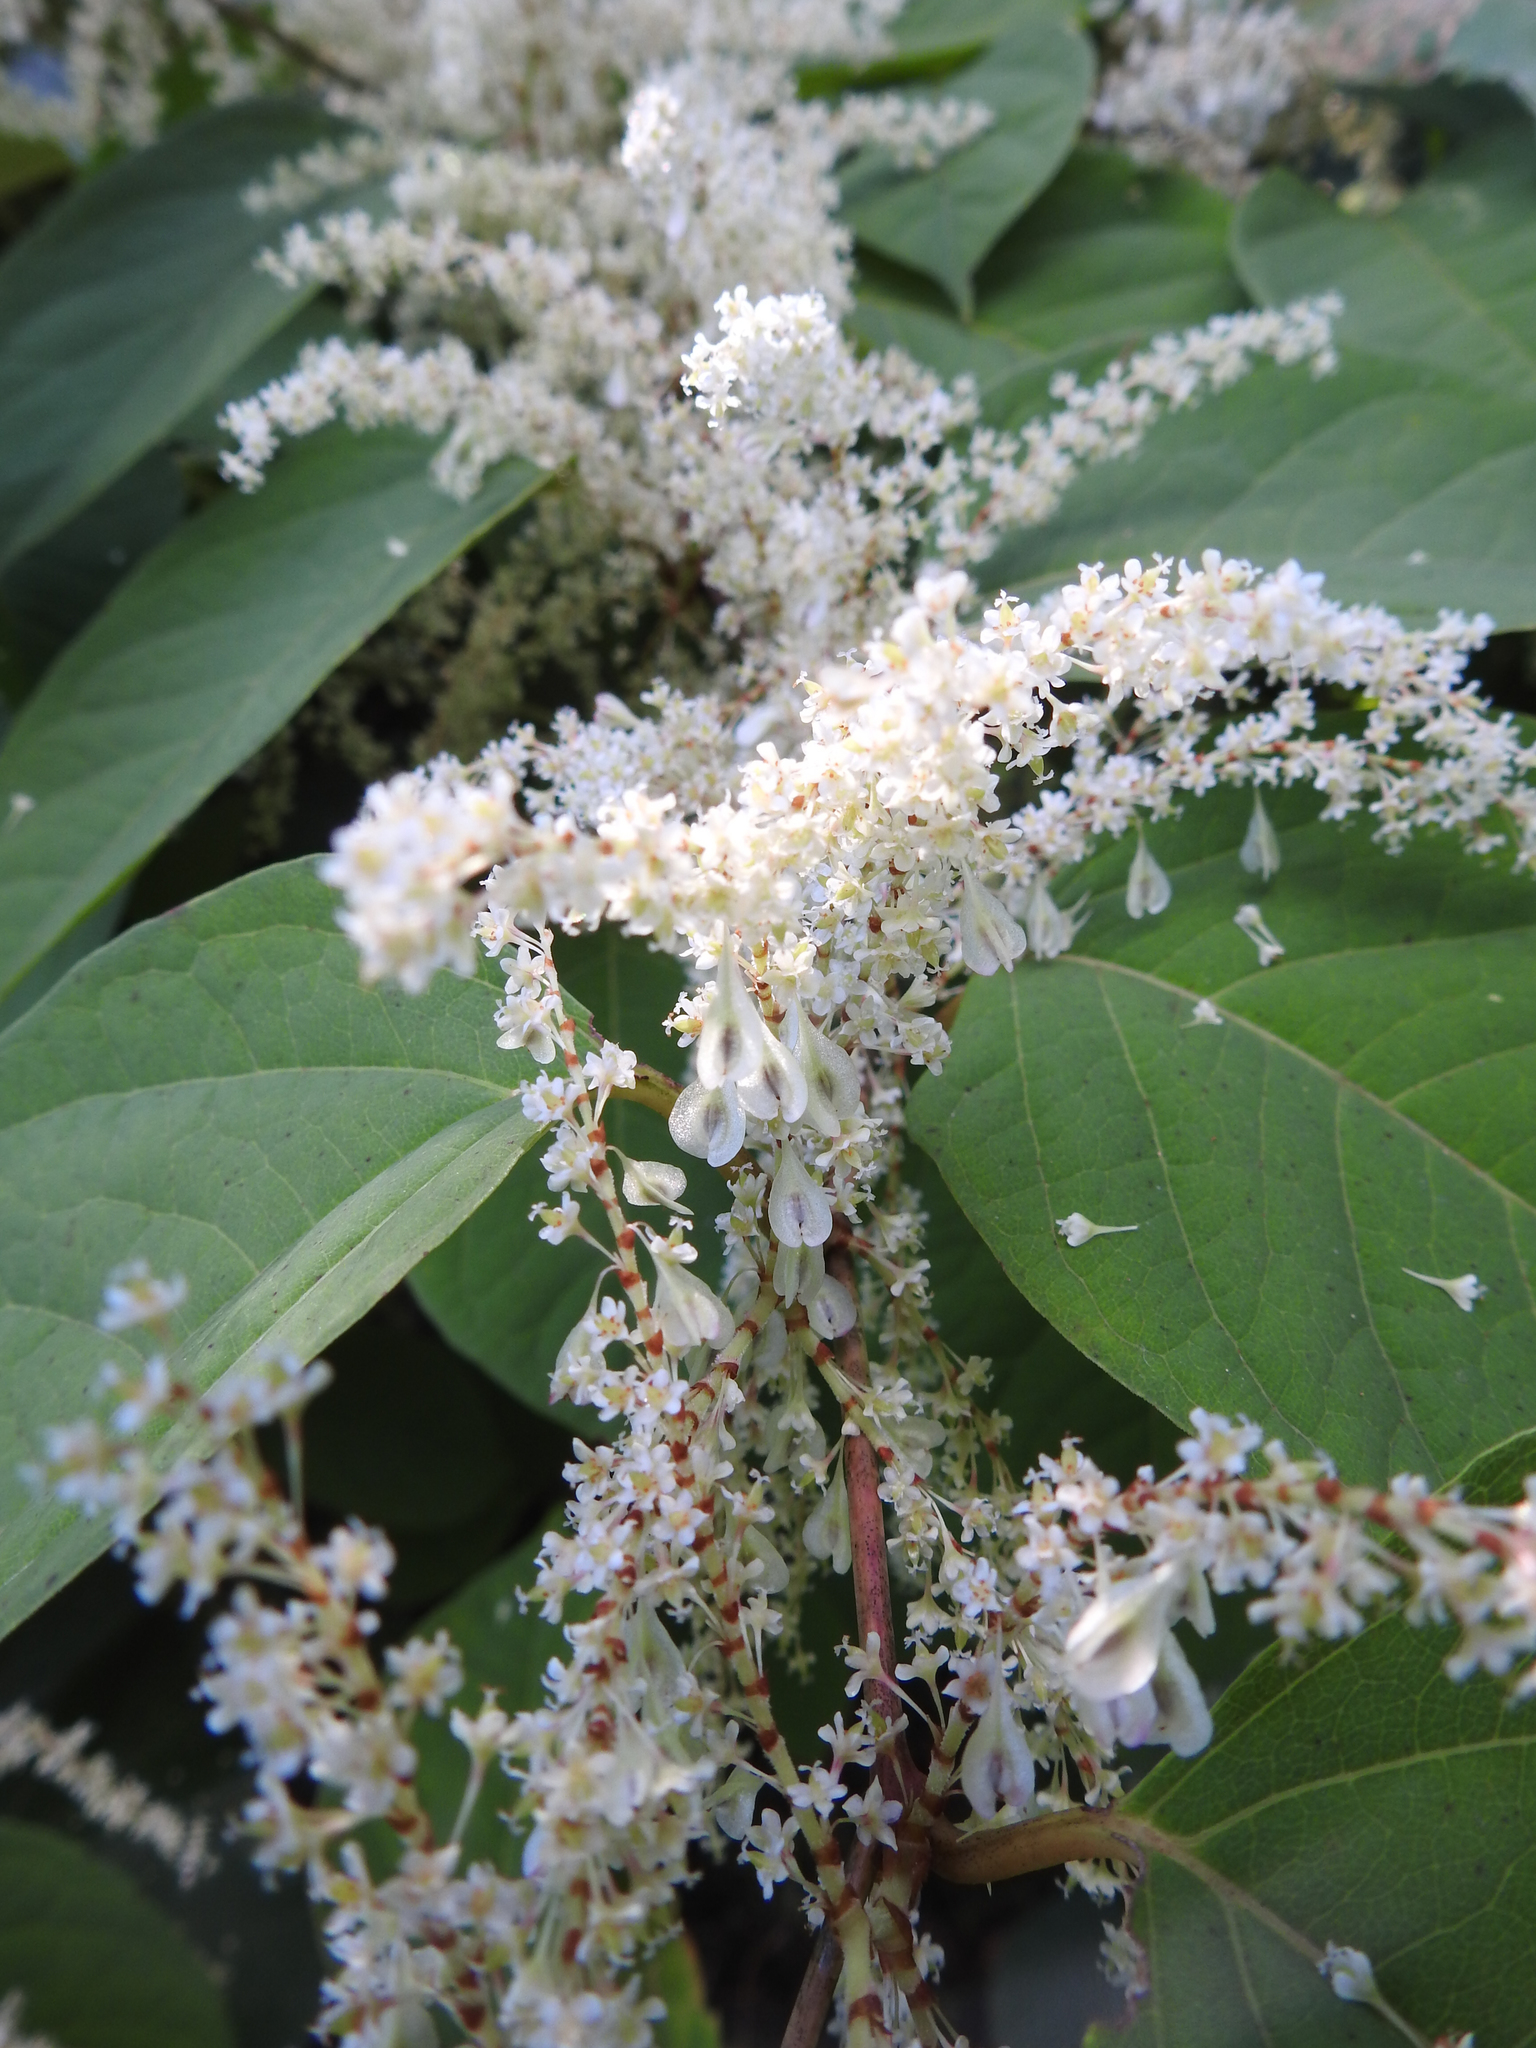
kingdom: Plantae
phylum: Tracheophyta
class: Magnoliopsida
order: Caryophyllales
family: Polygonaceae
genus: Reynoutria
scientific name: Reynoutria japonica
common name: Japanese knotweed
